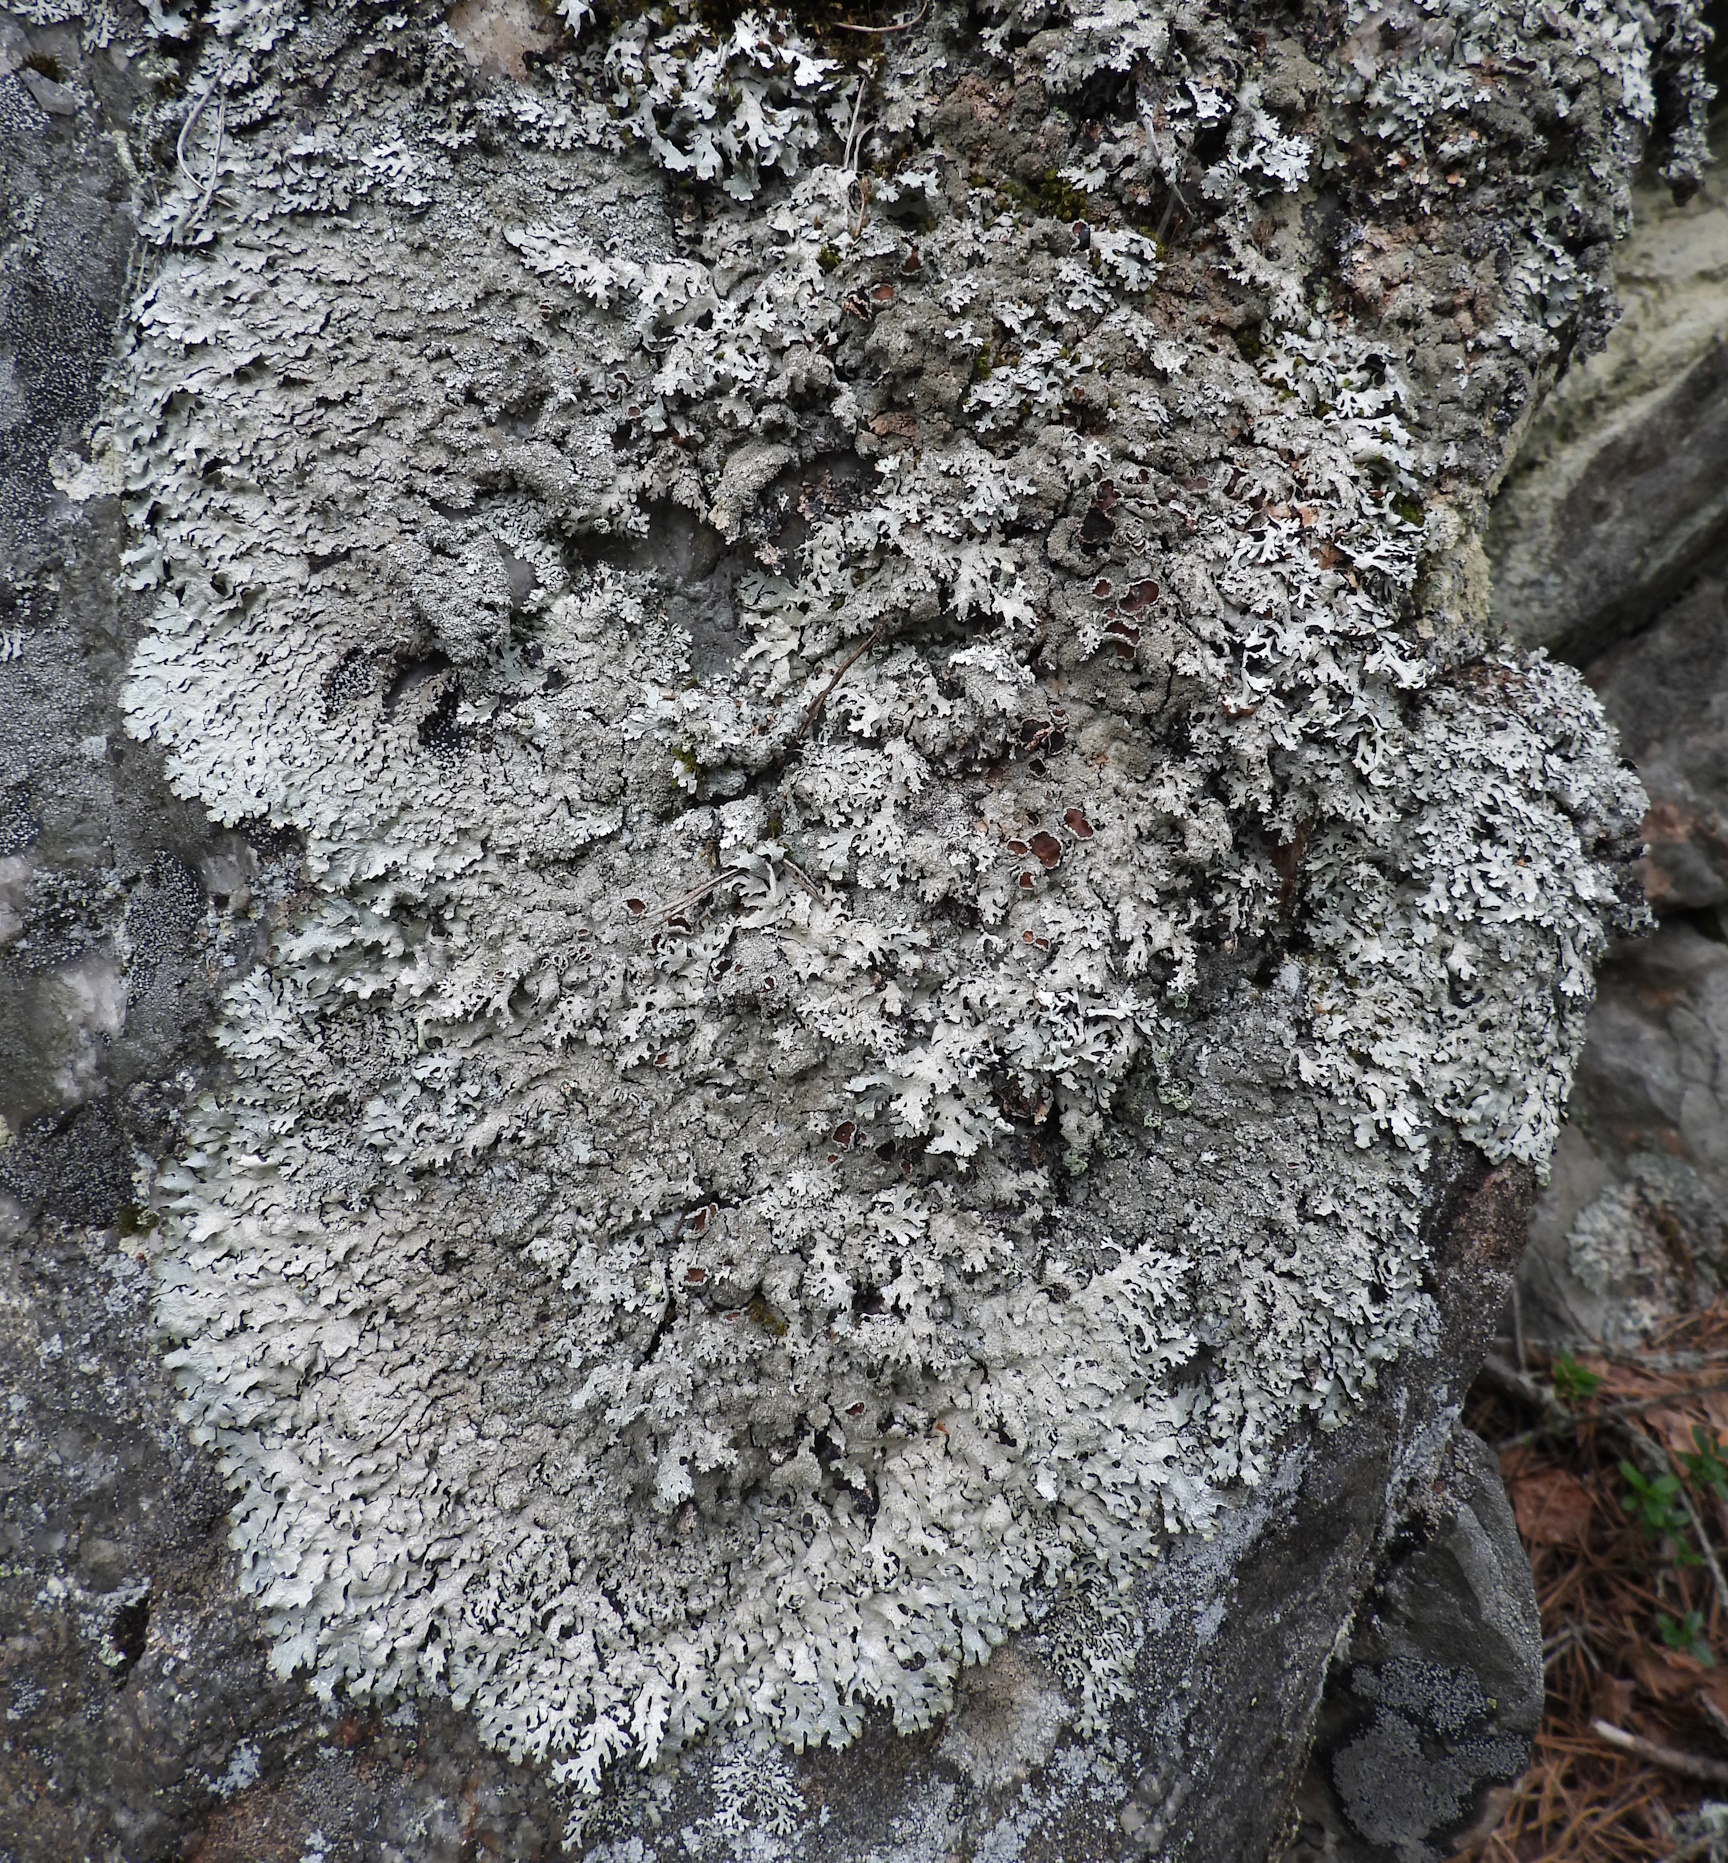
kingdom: Fungi
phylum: Ascomycota
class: Lecanoromycetes
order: Lecanorales
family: Parmeliaceae
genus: Parmelia
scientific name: Parmelia saxatilis
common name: Salted shield lichen
